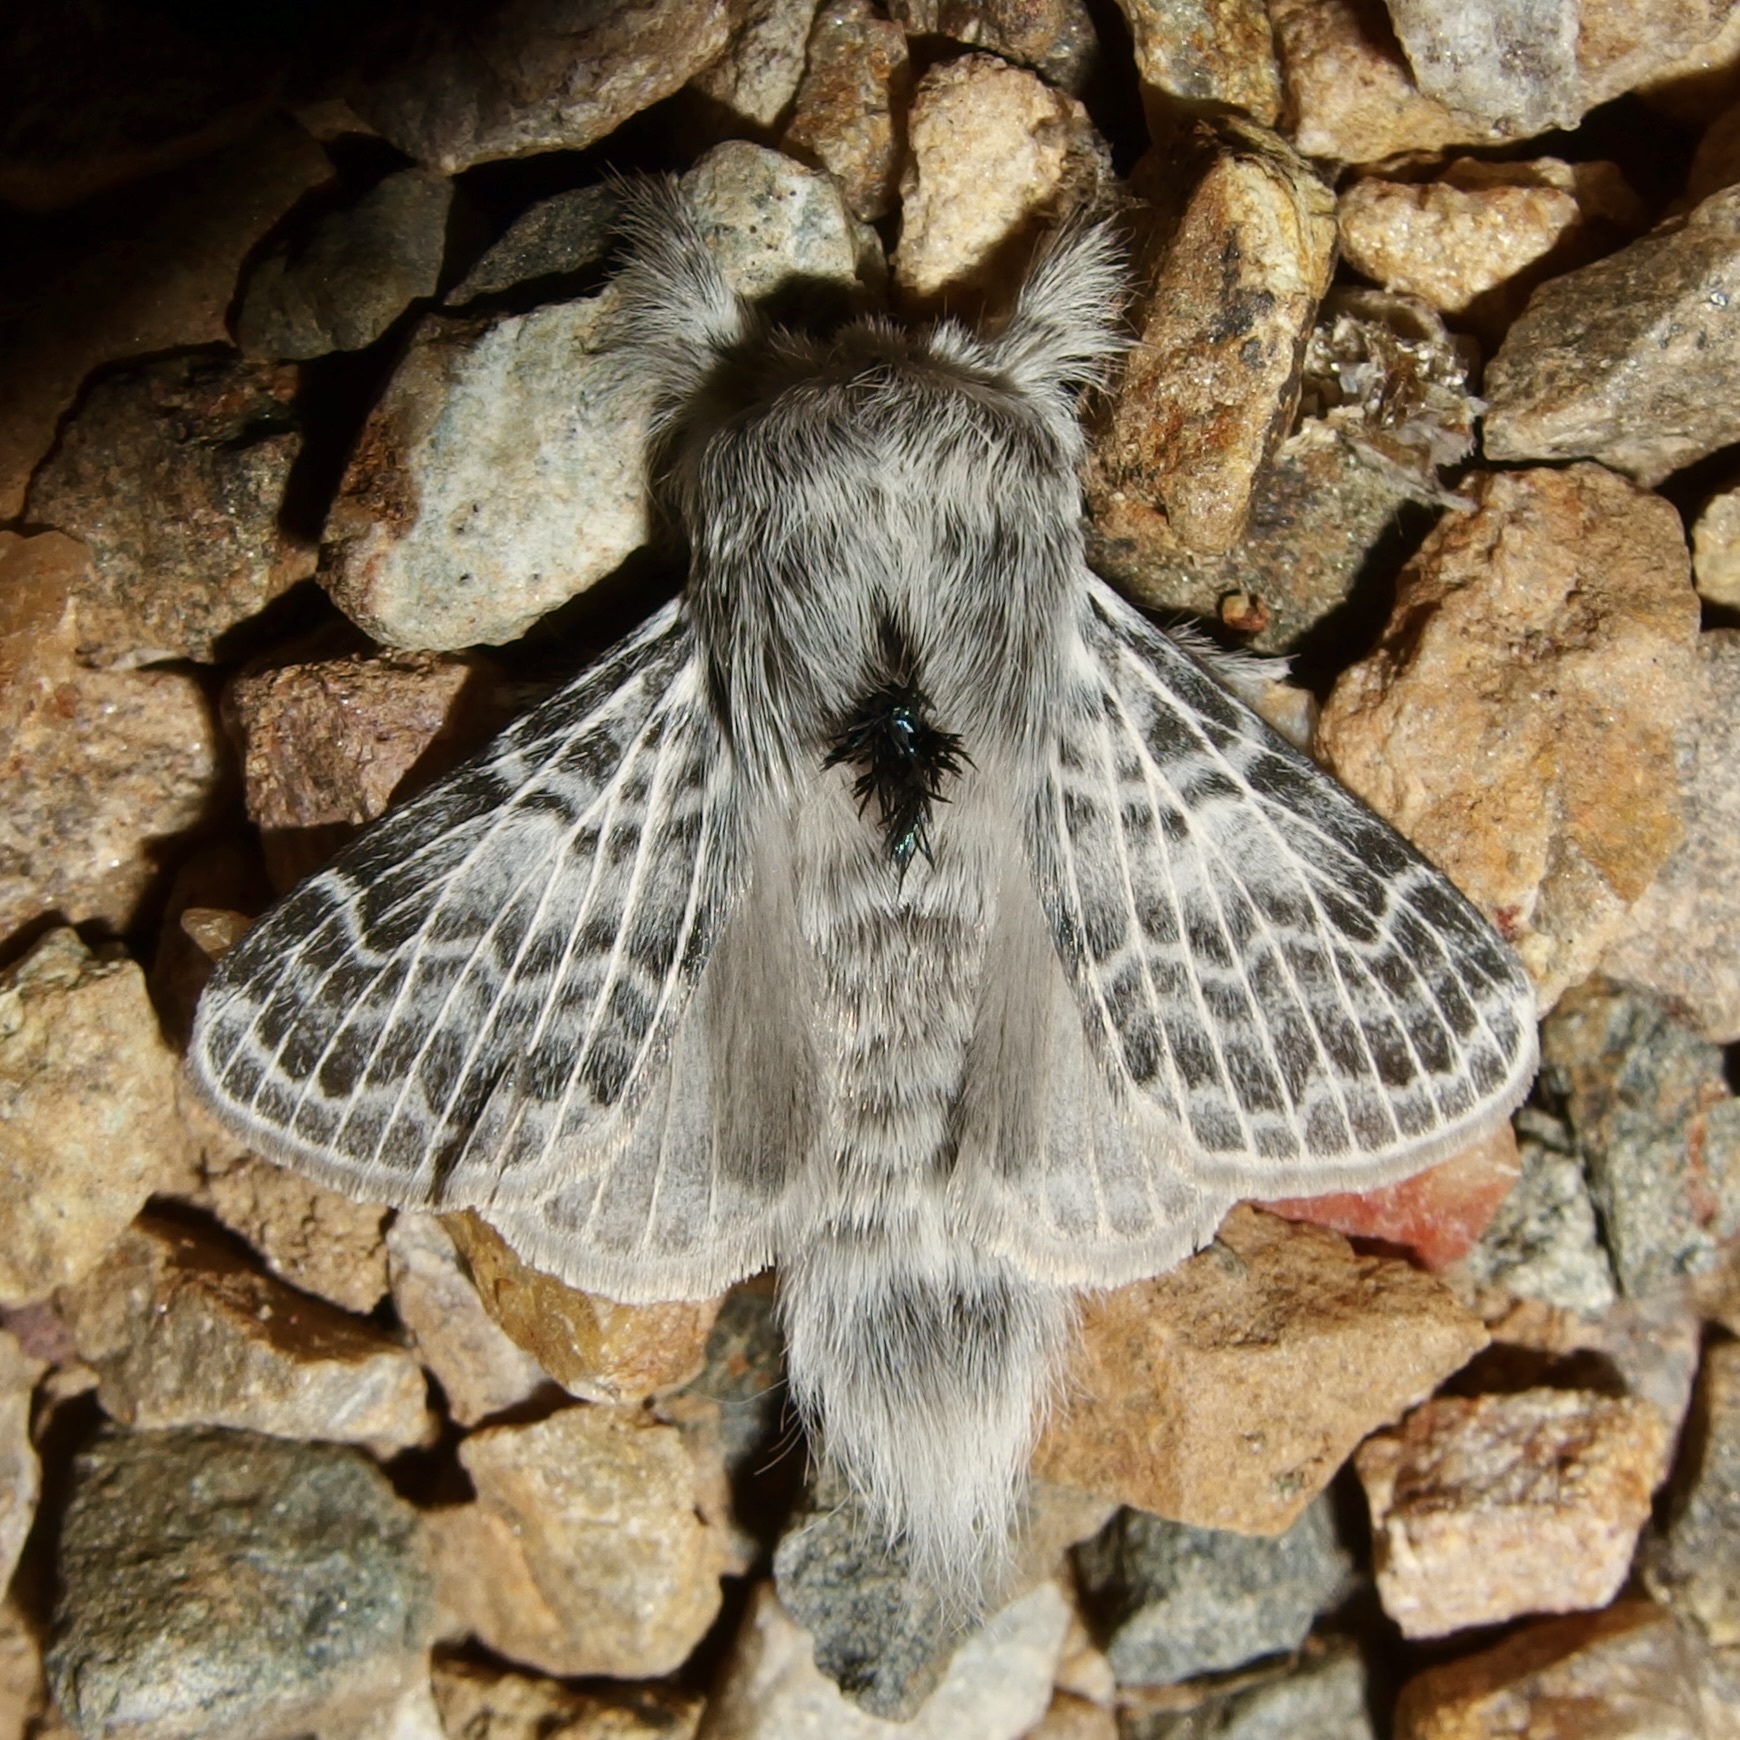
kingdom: Animalia
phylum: Arthropoda
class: Insecta
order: Lepidoptera
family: Lasiocampidae
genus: Apotolype
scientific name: Apotolype brevicrista
